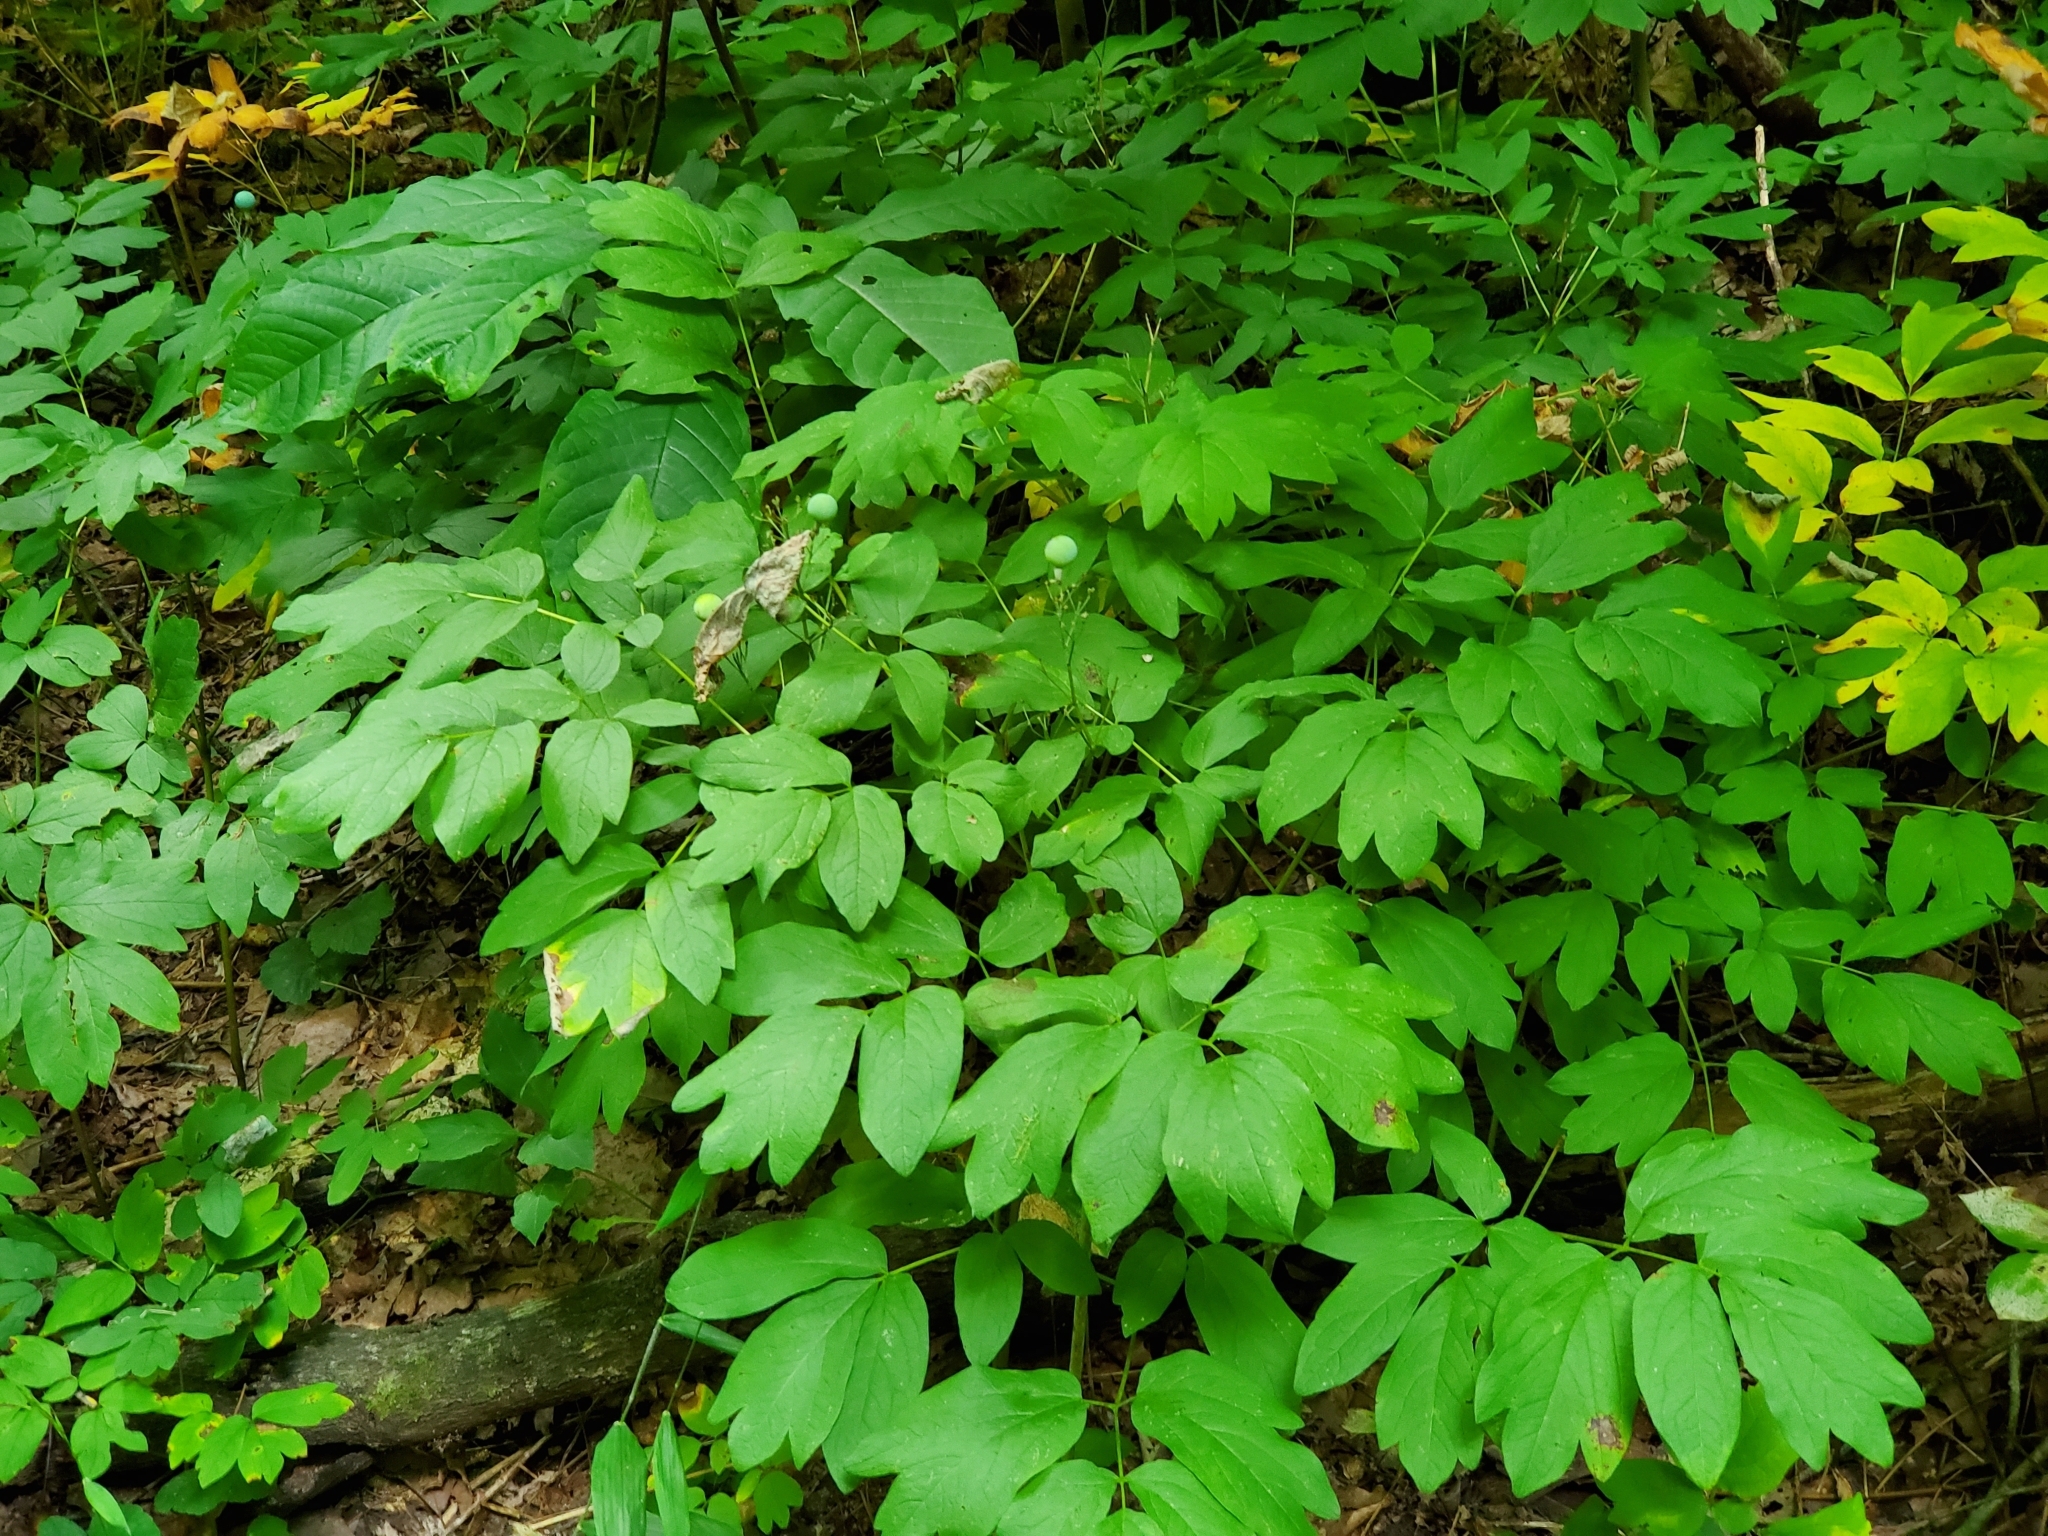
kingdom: Plantae
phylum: Tracheophyta
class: Magnoliopsida
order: Ranunculales
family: Berberidaceae
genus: Caulophyllum
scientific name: Caulophyllum thalictroides
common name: Blue cohosh
